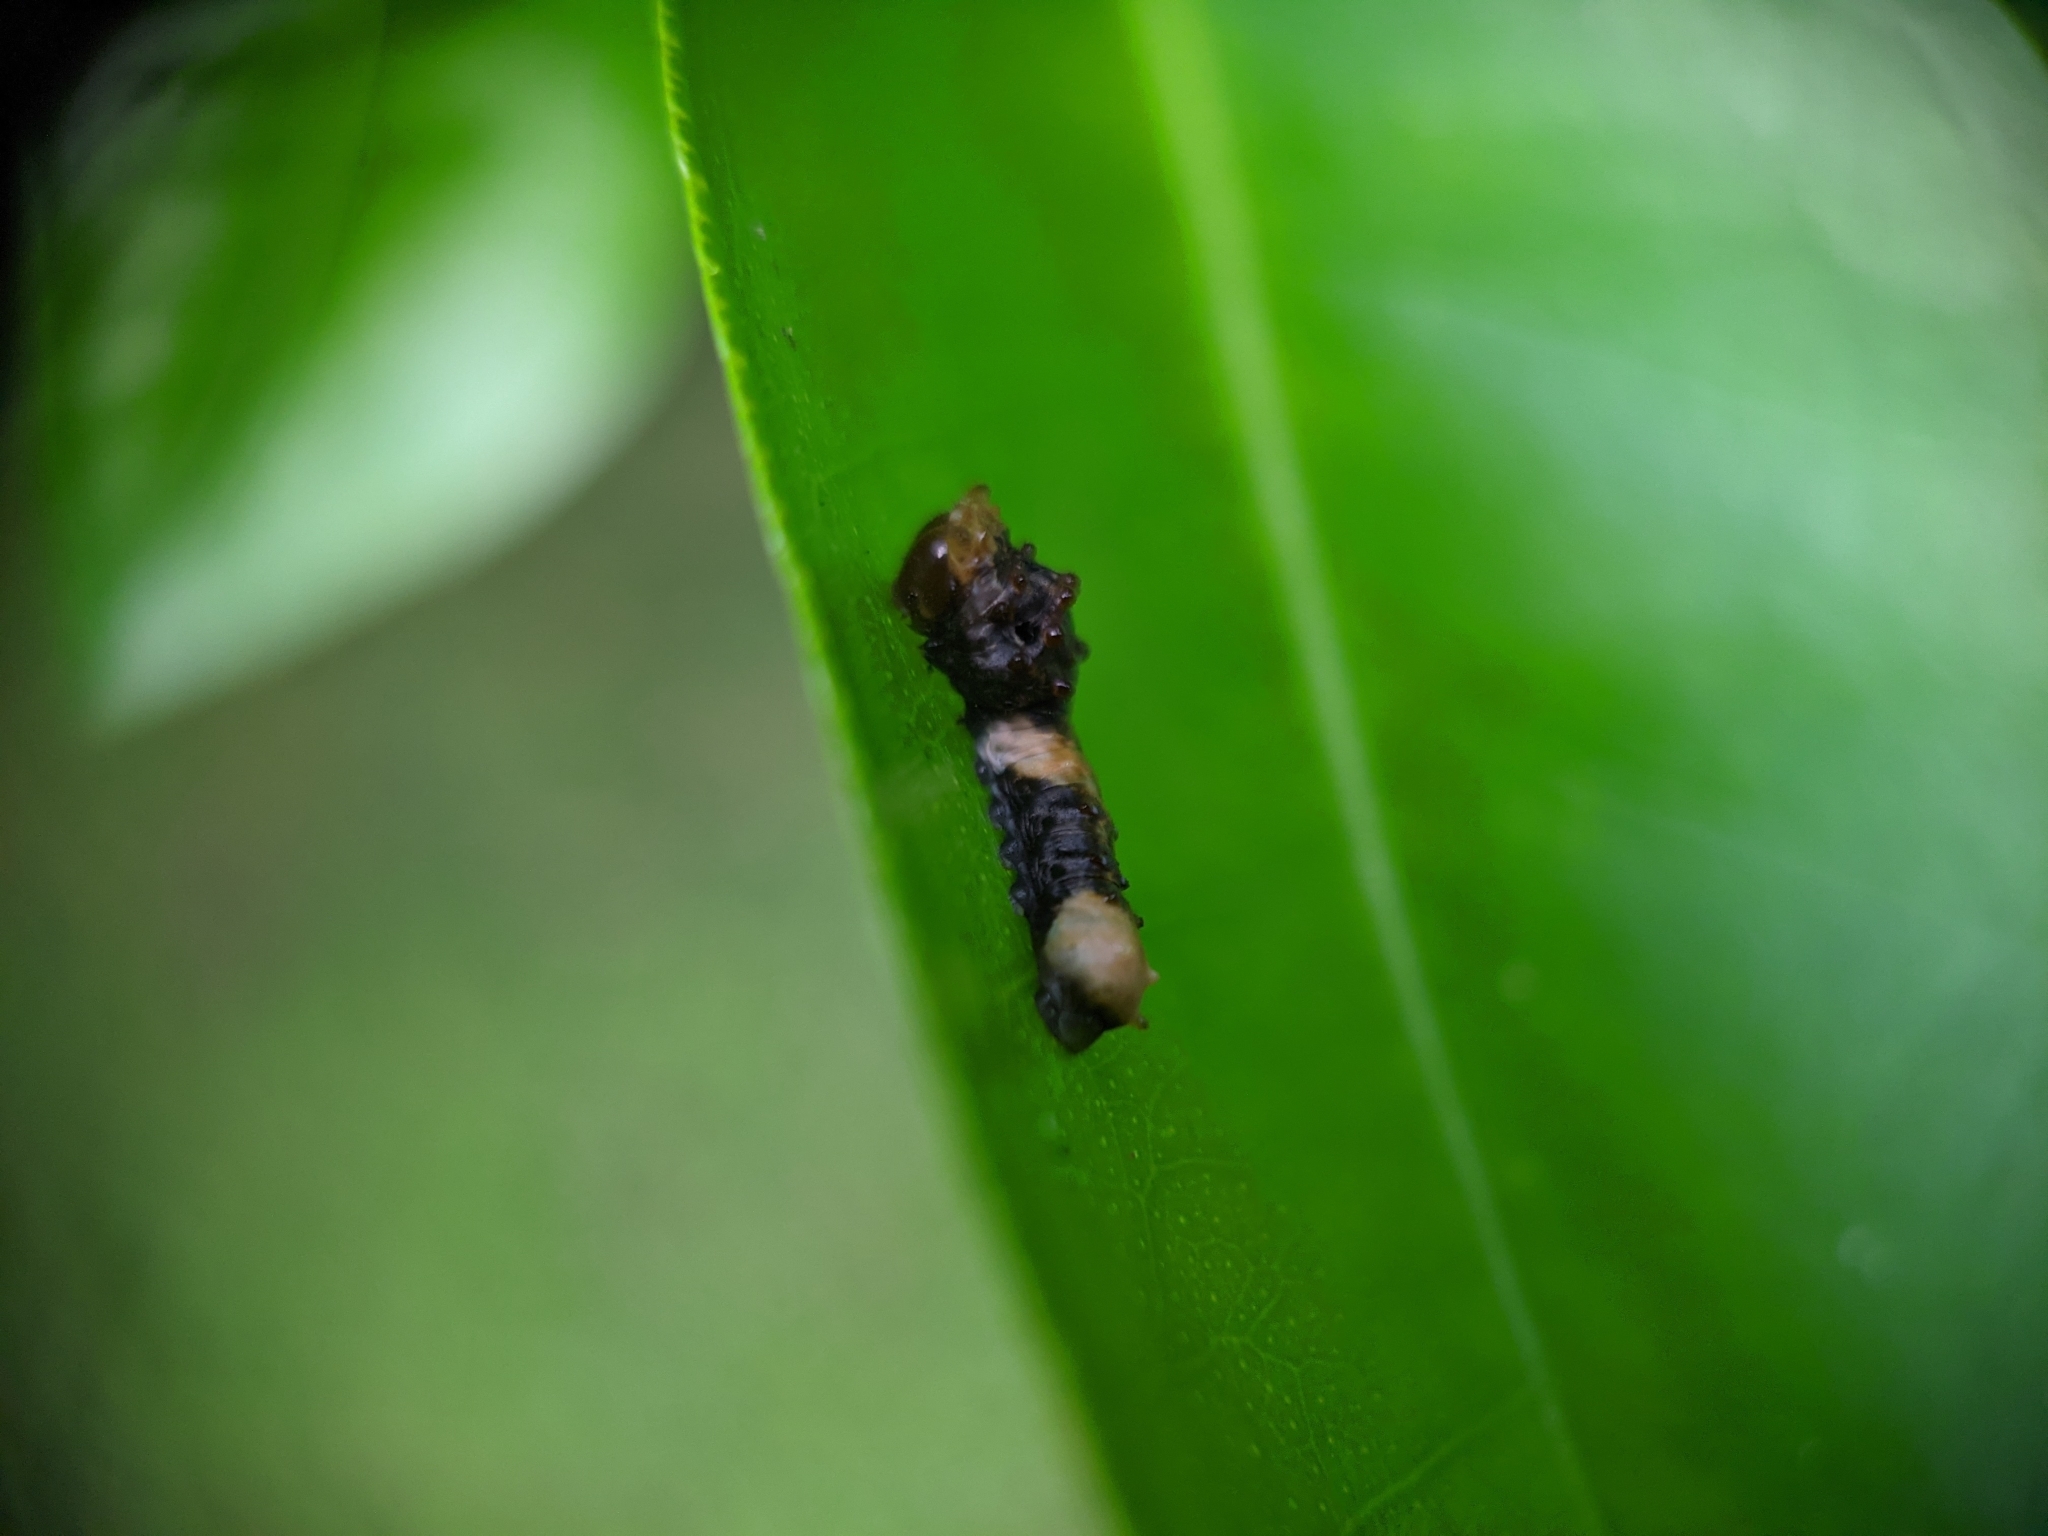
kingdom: Animalia
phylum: Arthropoda
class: Insecta
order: Lepidoptera
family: Papilionidae
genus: Papilio
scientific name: Papilio cresphontes
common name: Giant swallowtail
